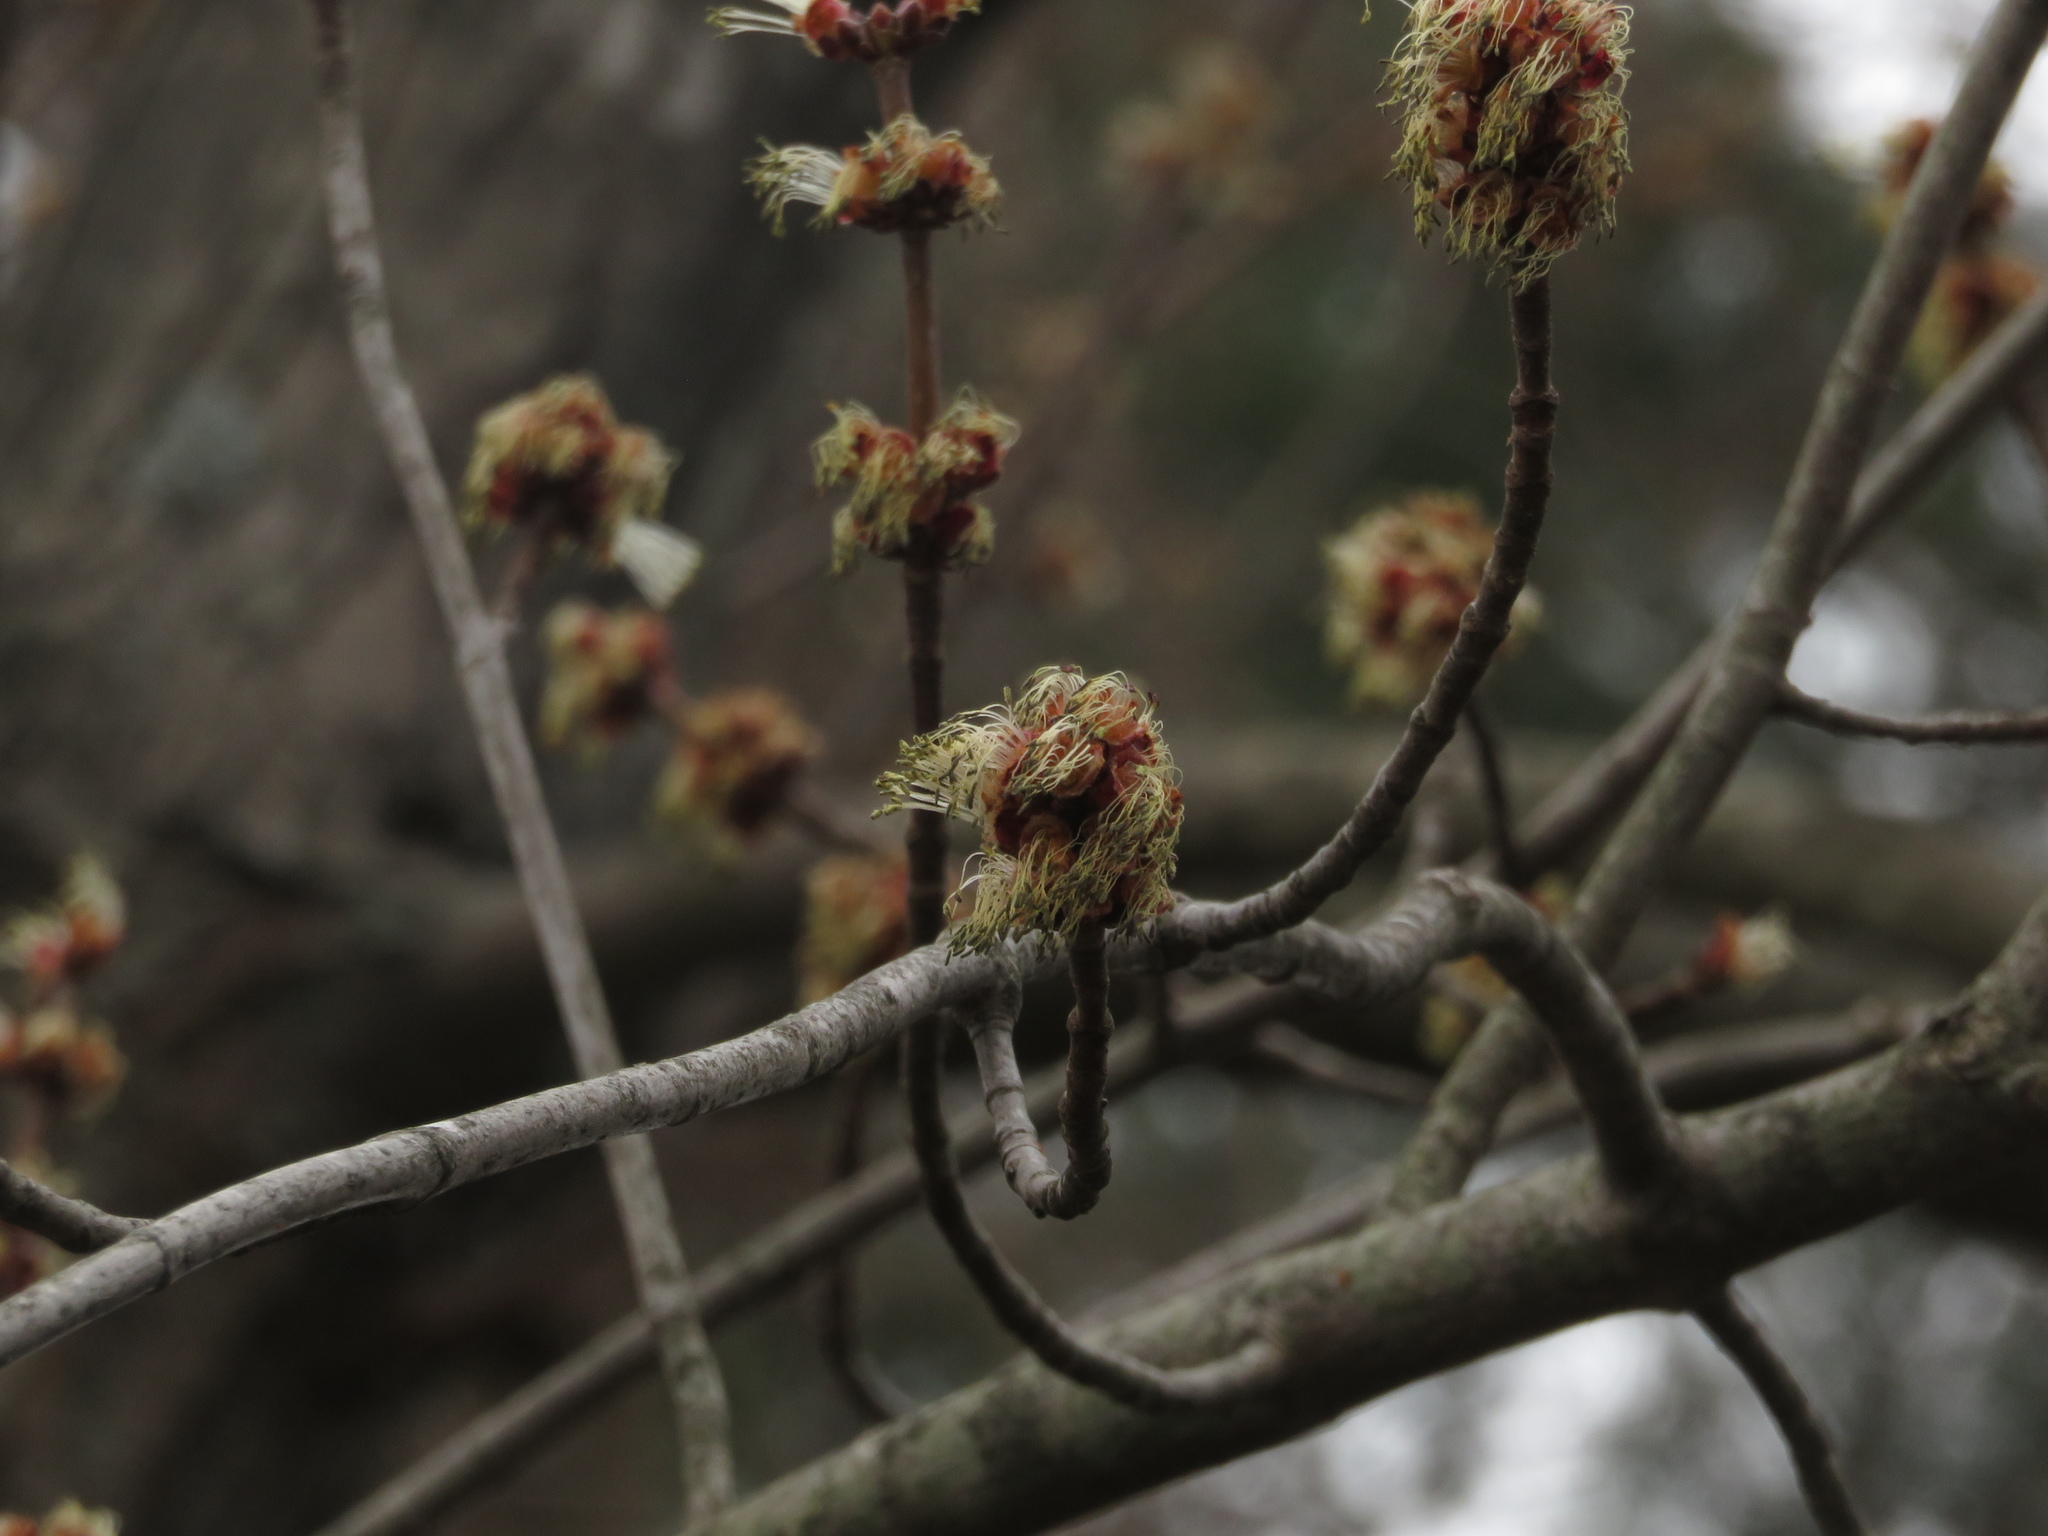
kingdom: Plantae
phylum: Tracheophyta
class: Magnoliopsida
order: Sapindales
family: Sapindaceae
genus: Acer
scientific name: Acer saccharinum
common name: Silver maple
